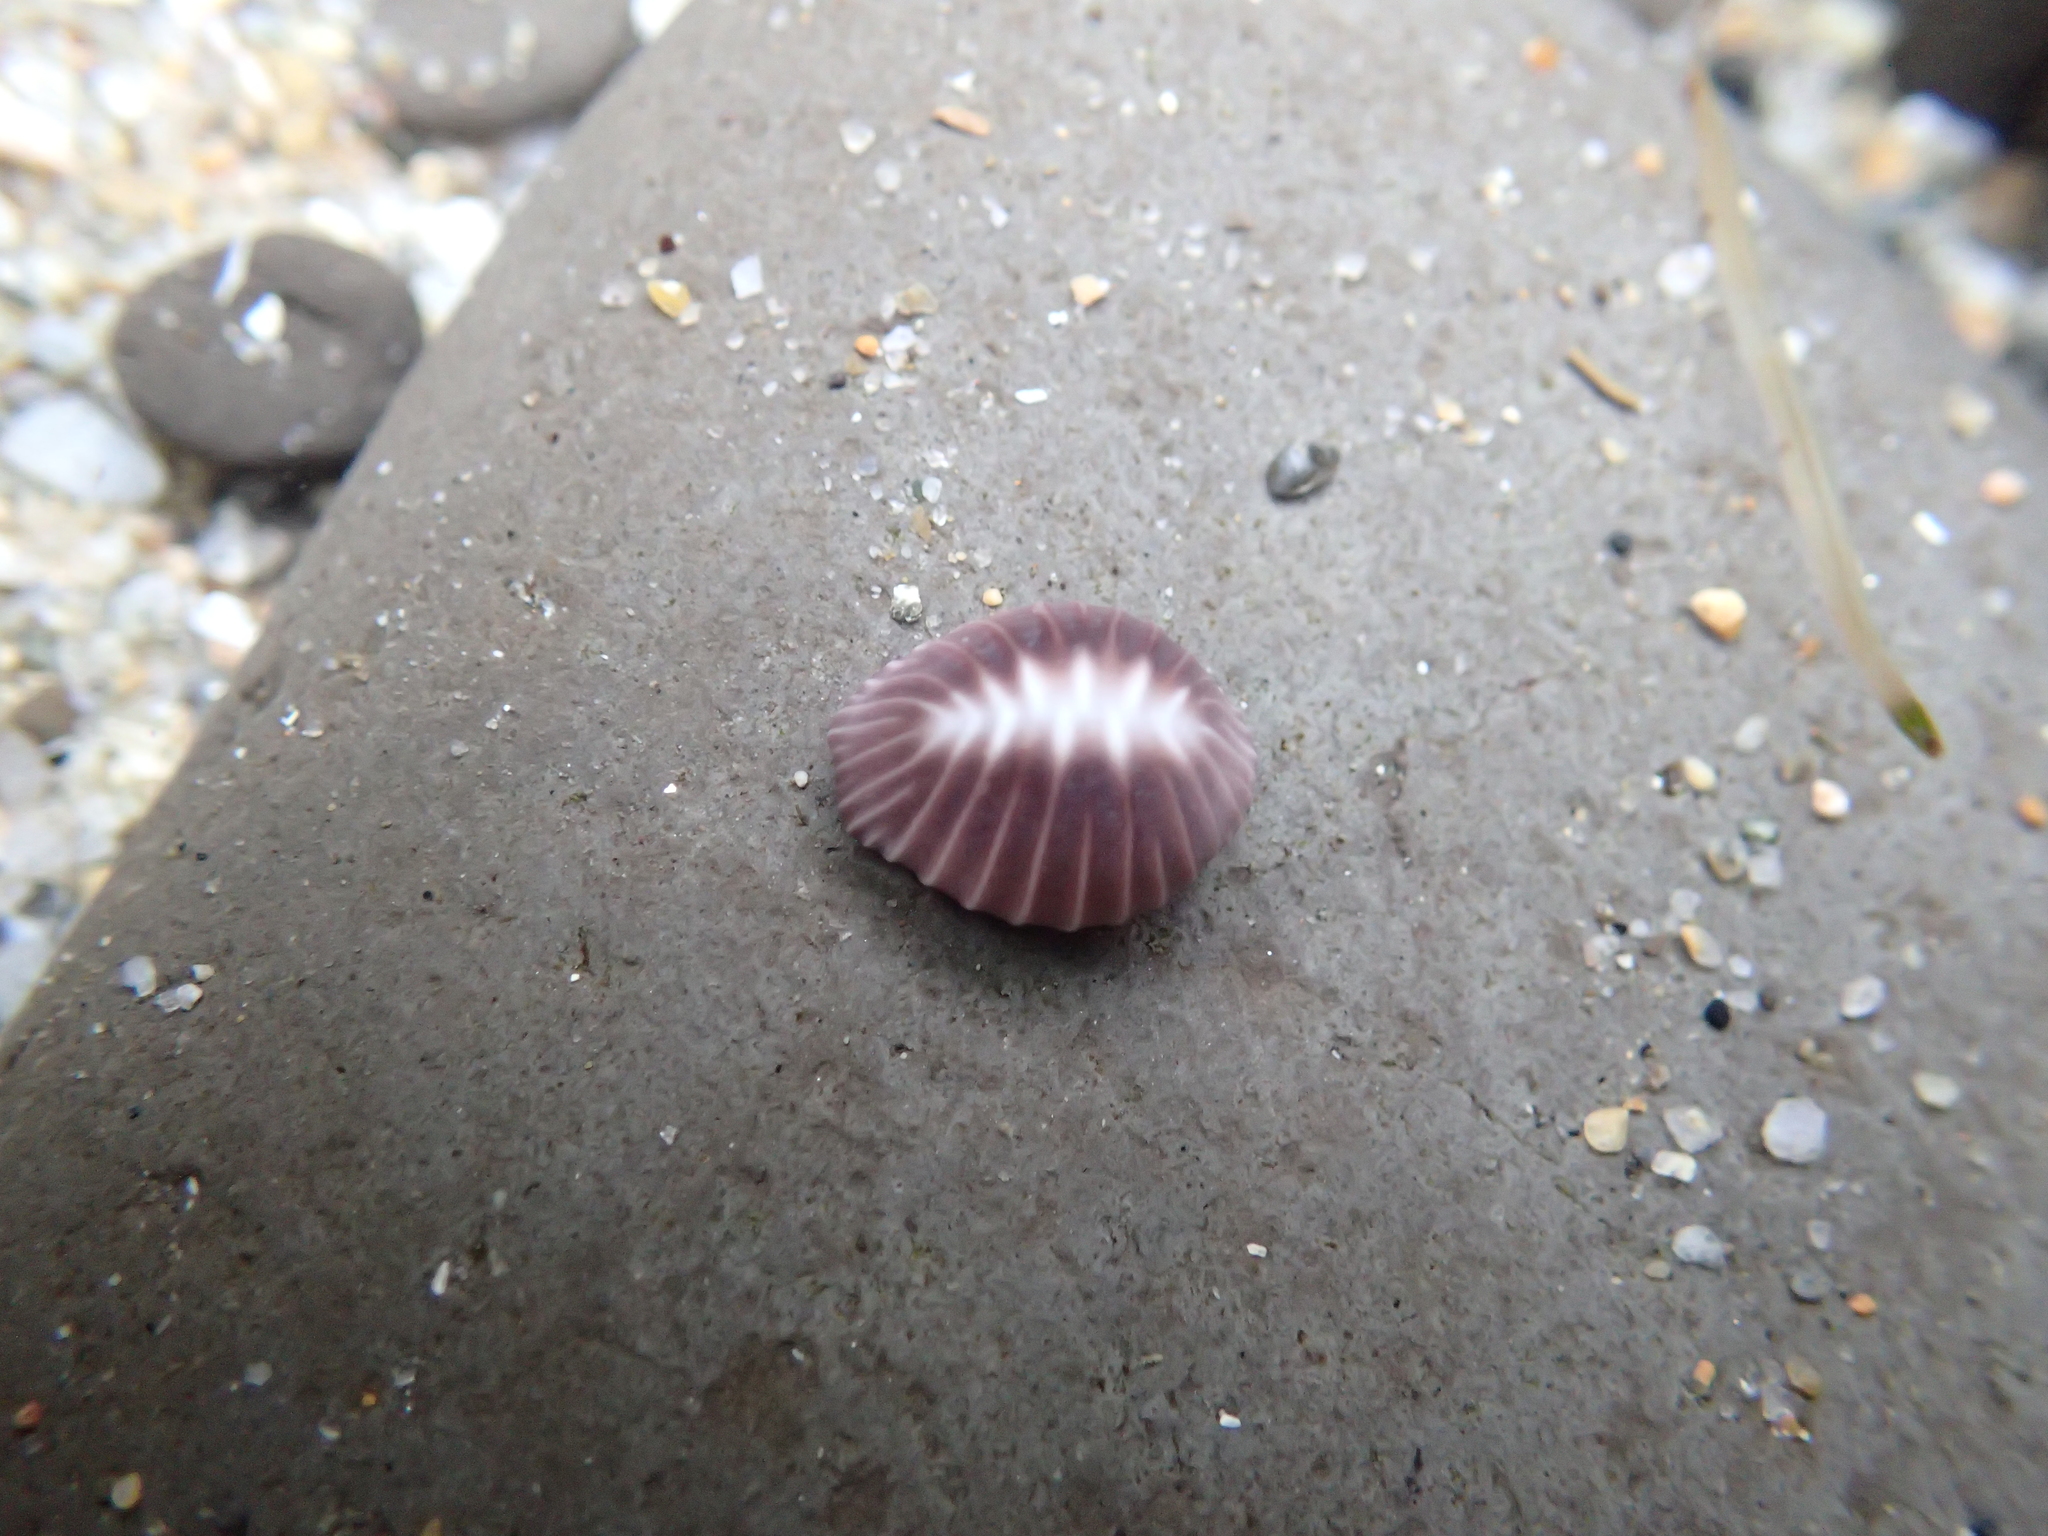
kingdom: Animalia
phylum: Mollusca
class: Gastropoda
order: Littorinimorpha
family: Triviidae
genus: Pseudopusula
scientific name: Pseudopusula californiana
